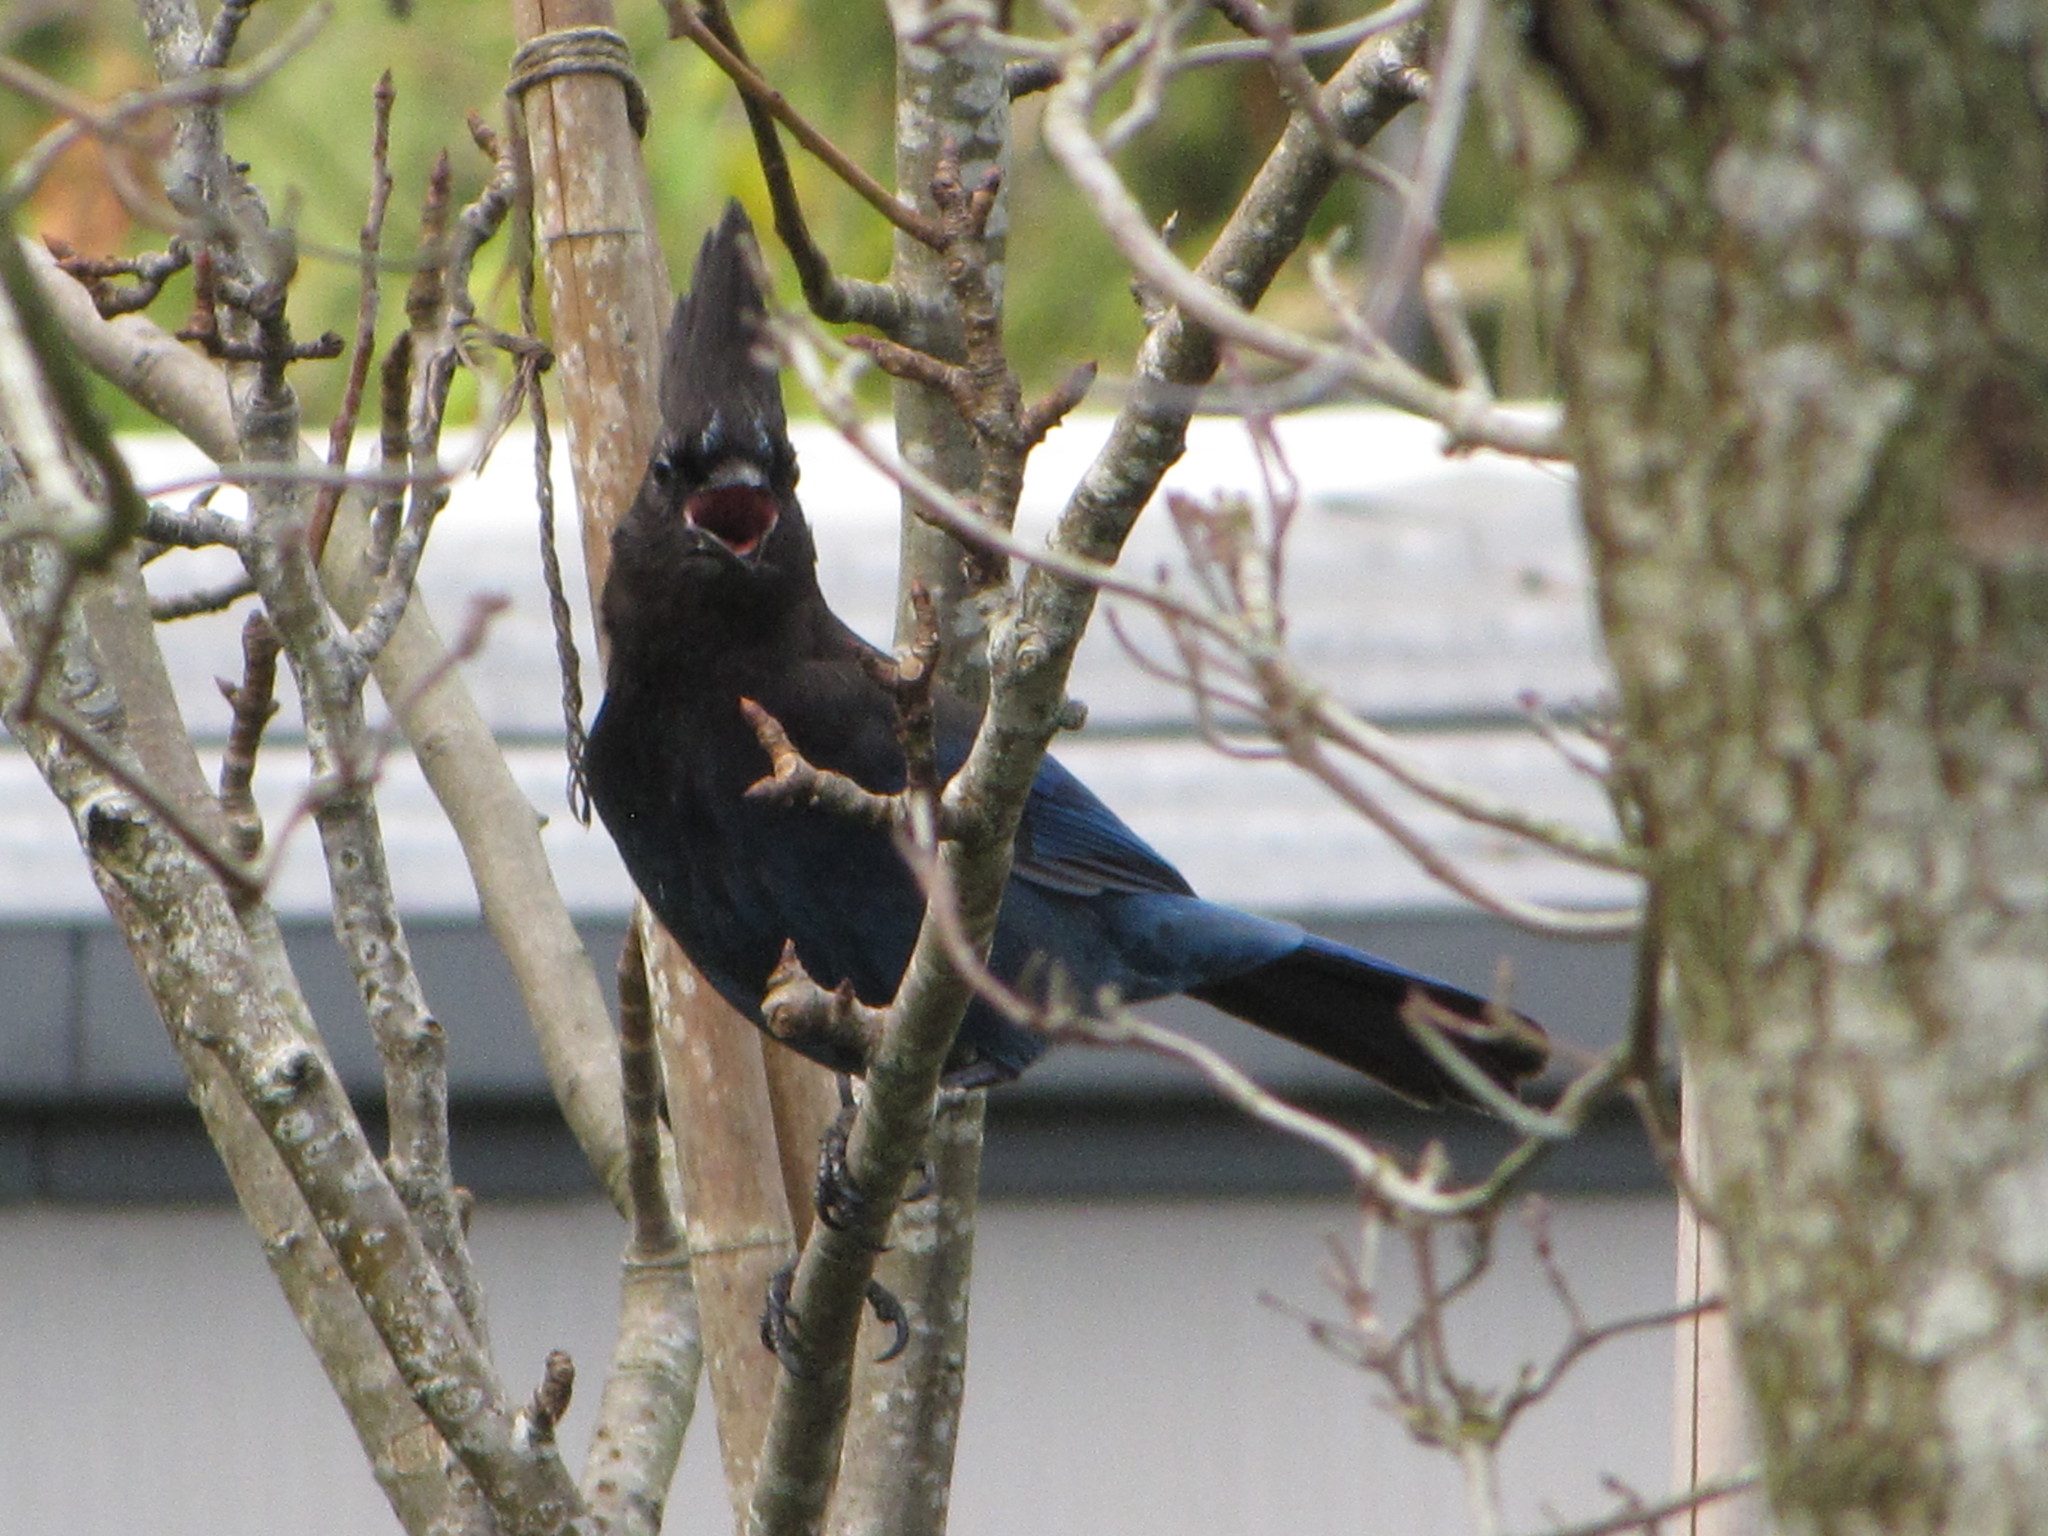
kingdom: Animalia
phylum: Chordata
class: Aves
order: Passeriformes
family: Corvidae
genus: Cyanocitta
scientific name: Cyanocitta stelleri
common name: Steller's jay
